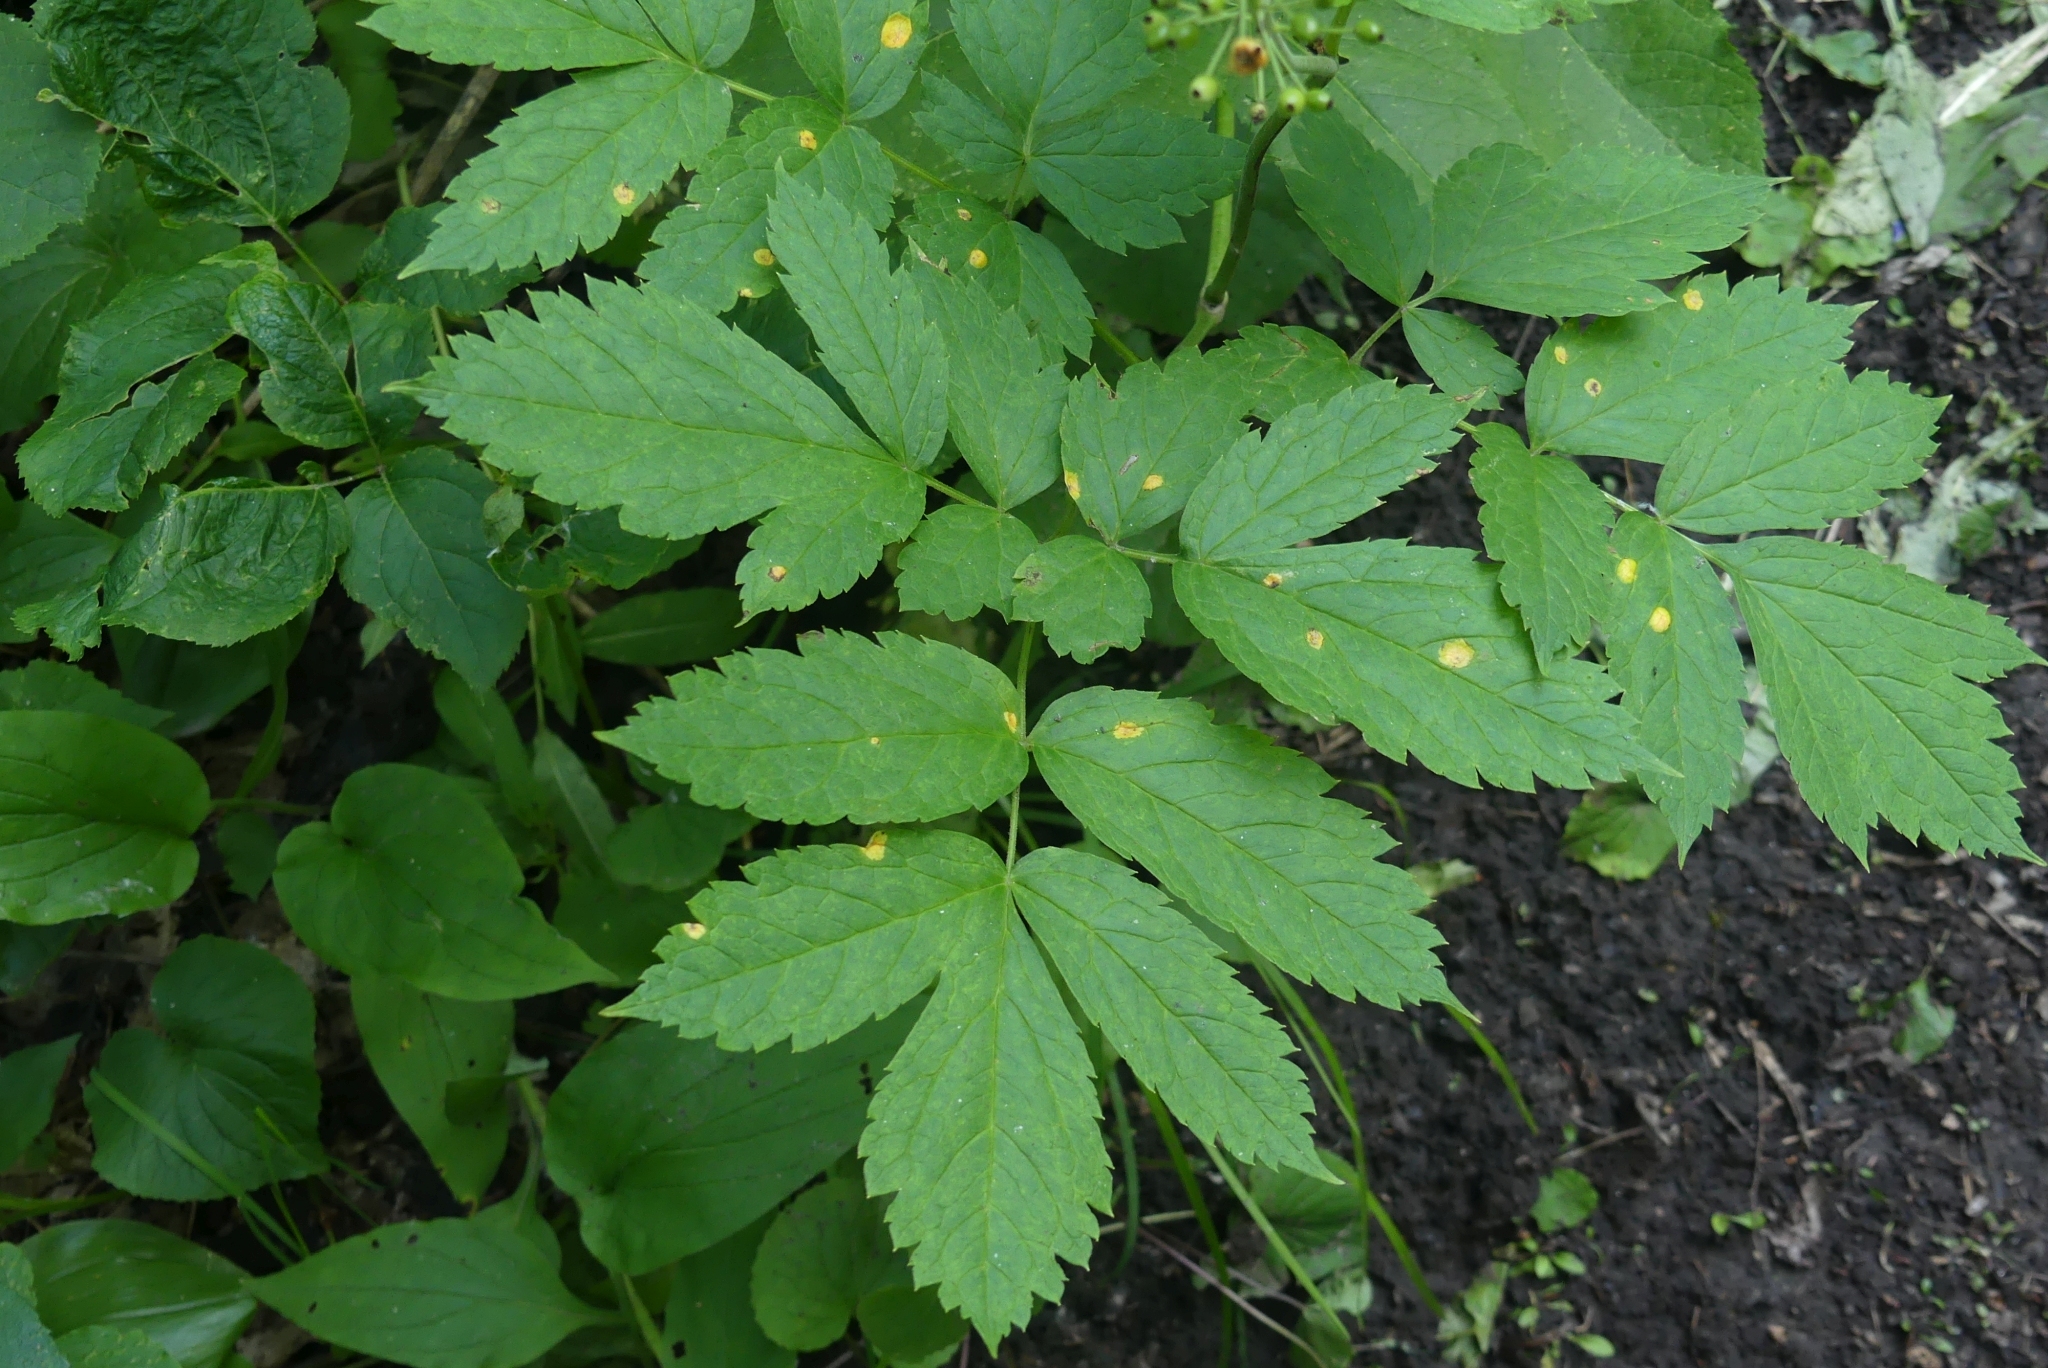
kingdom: Plantae
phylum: Tracheophyta
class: Magnoliopsida
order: Ranunculales
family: Ranunculaceae
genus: Actaea
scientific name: Actaea rubra
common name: Red baneberry
